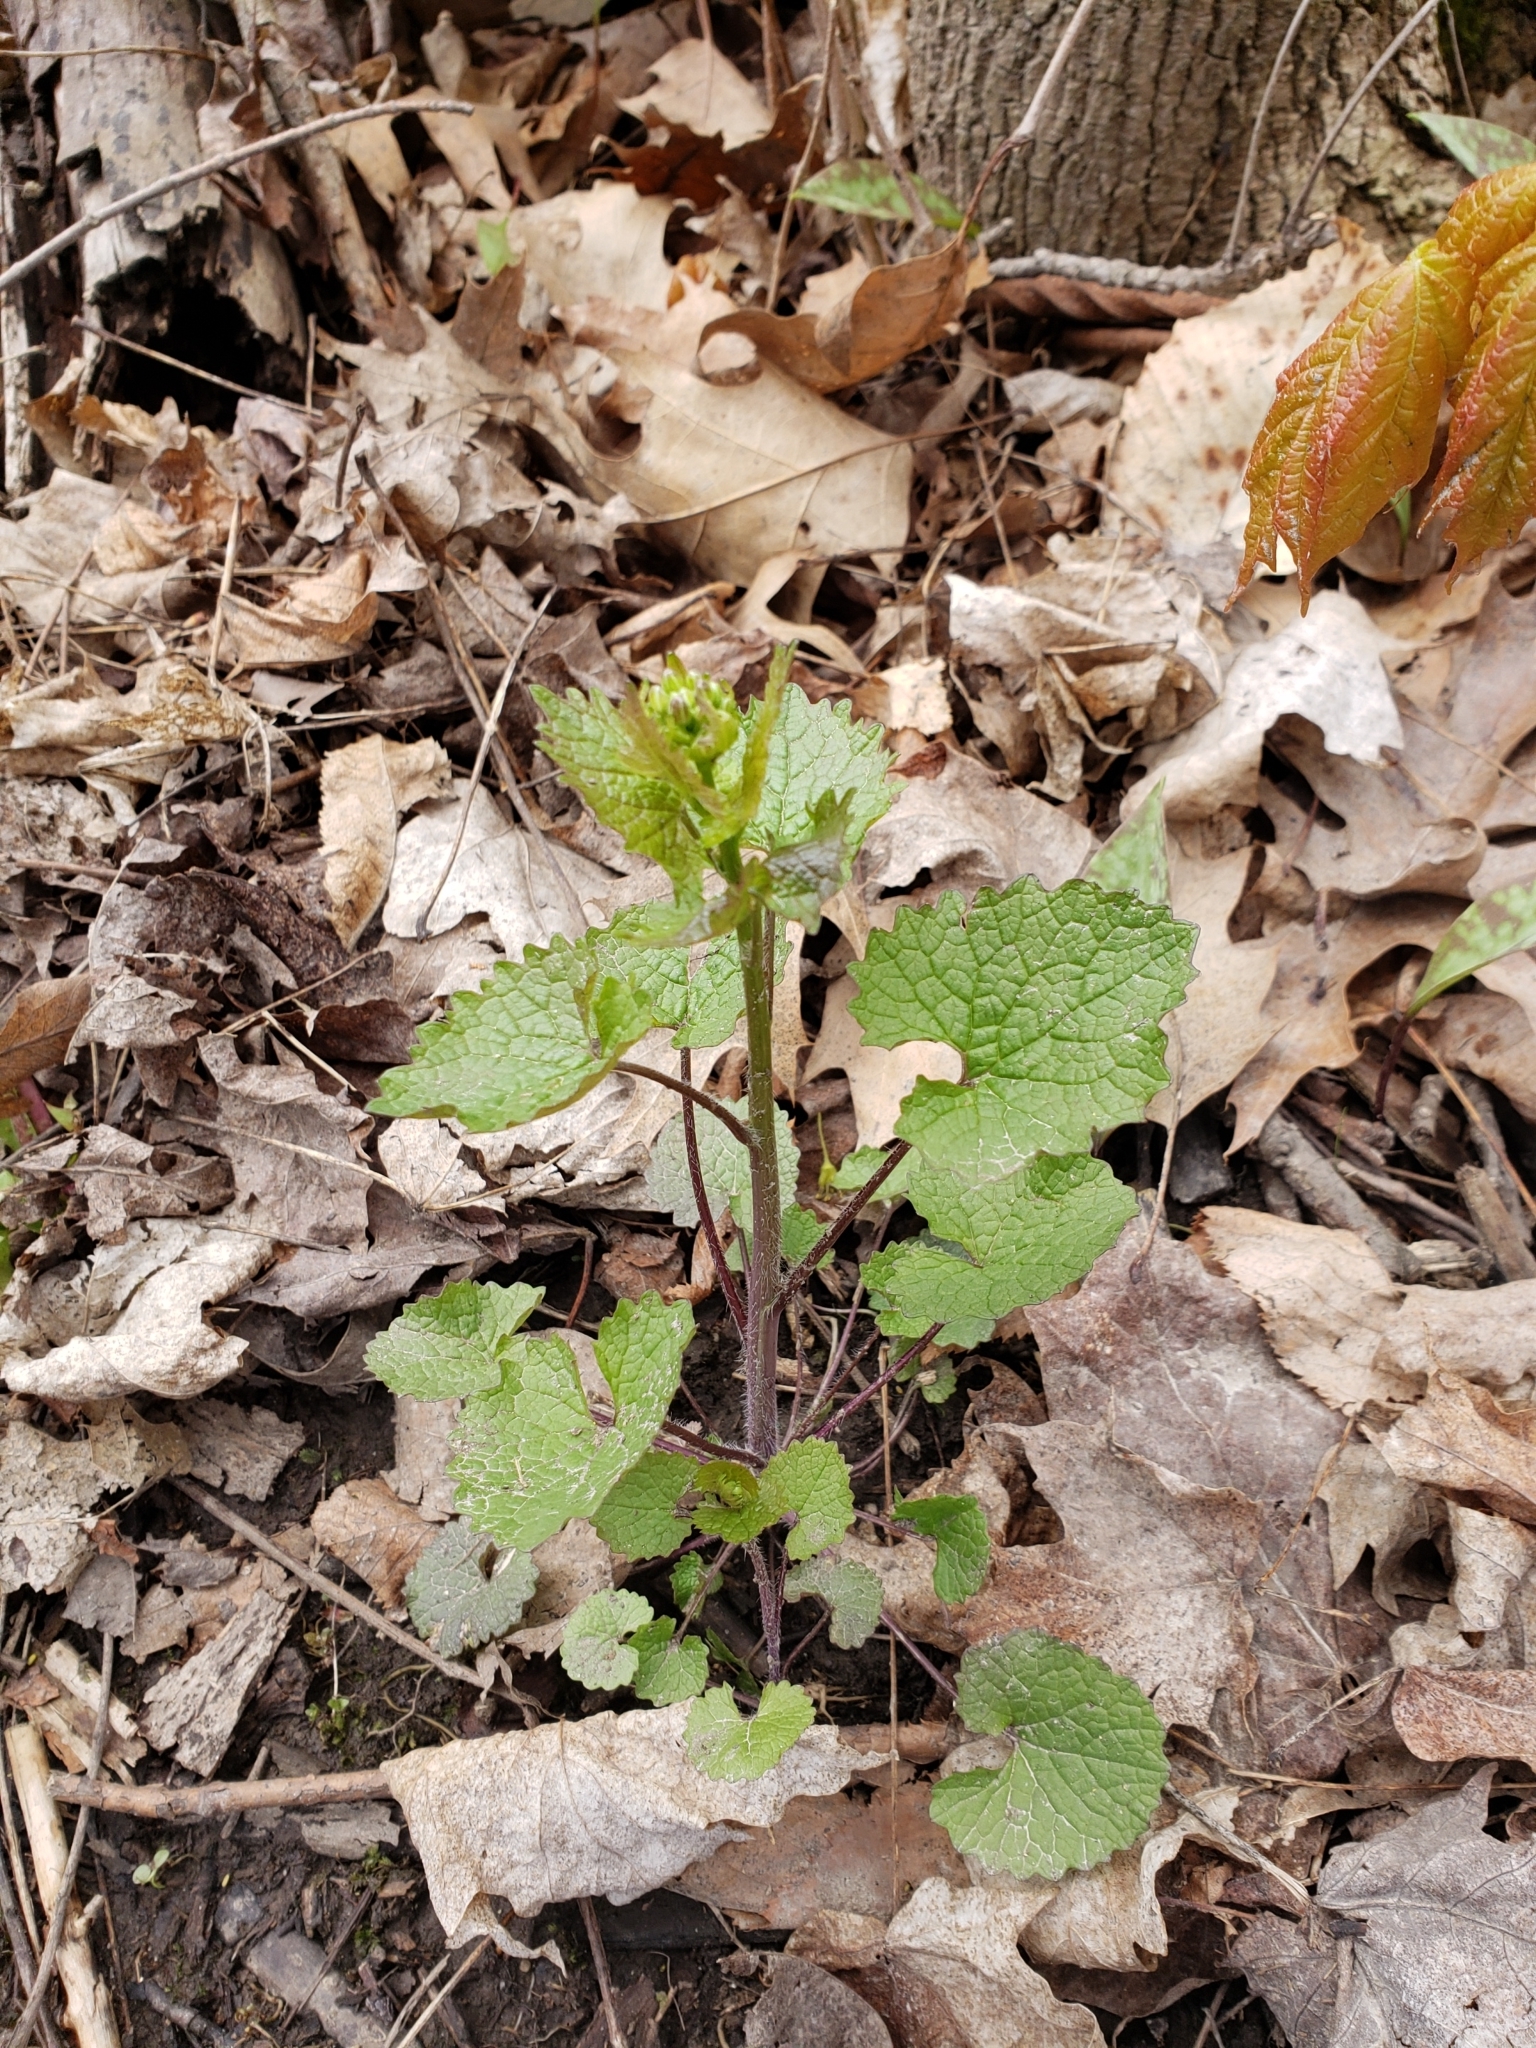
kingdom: Plantae
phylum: Tracheophyta
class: Magnoliopsida
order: Brassicales
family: Brassicaceae
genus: Alliaria
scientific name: Alliaria petiolata
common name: Garlic mustard
